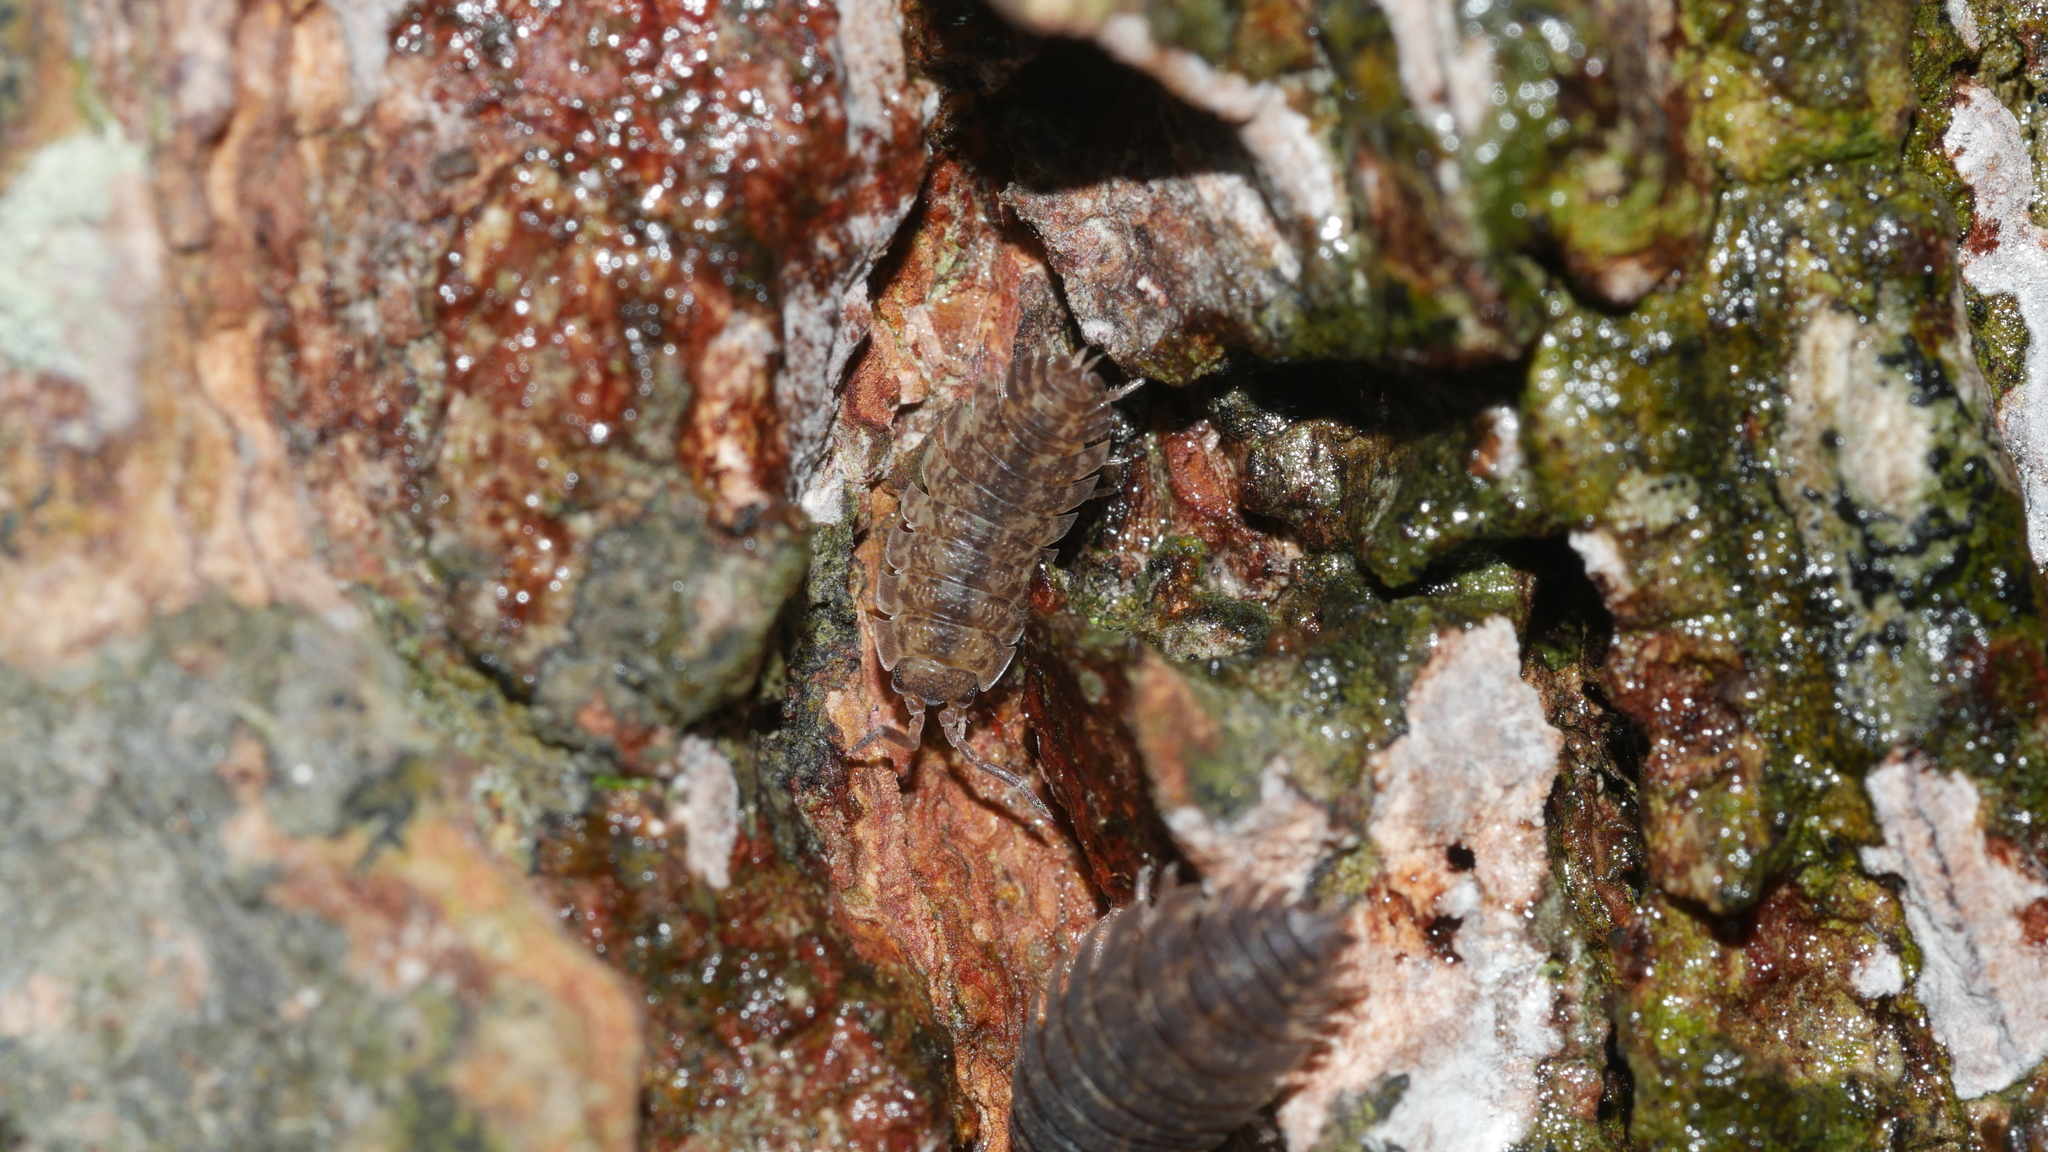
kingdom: Animalia
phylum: Arthropoda
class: Malacostraca
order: Isopoda
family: Porcellionidae
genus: Porcellio
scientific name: Porcellio scaber
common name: Common rough woodlouse
